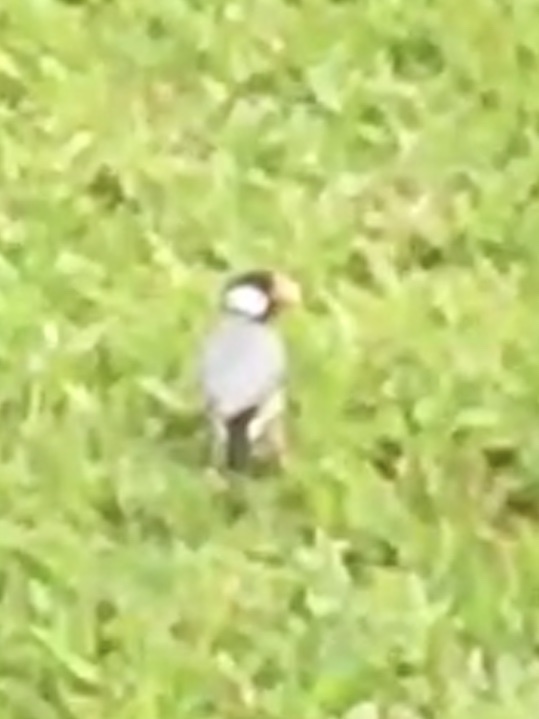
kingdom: Animalia
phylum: Chordata
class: Aves
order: Passeriformes
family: Estrildidae
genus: Lonchura
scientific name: Lonchura oryzivora
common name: Java sparrow
